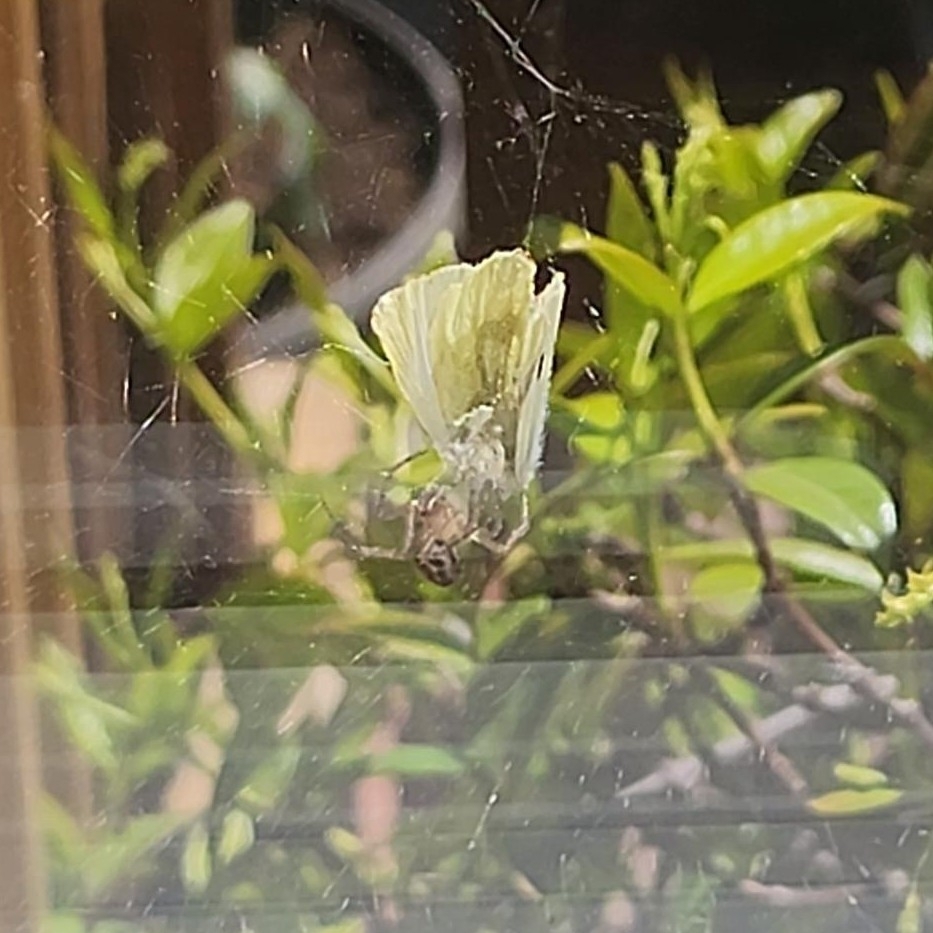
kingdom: Animalia
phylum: Arthropoda
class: Insecta
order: Lepidoptera
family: Pieridae
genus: Pieris
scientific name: Pieris rapae
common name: Small white
